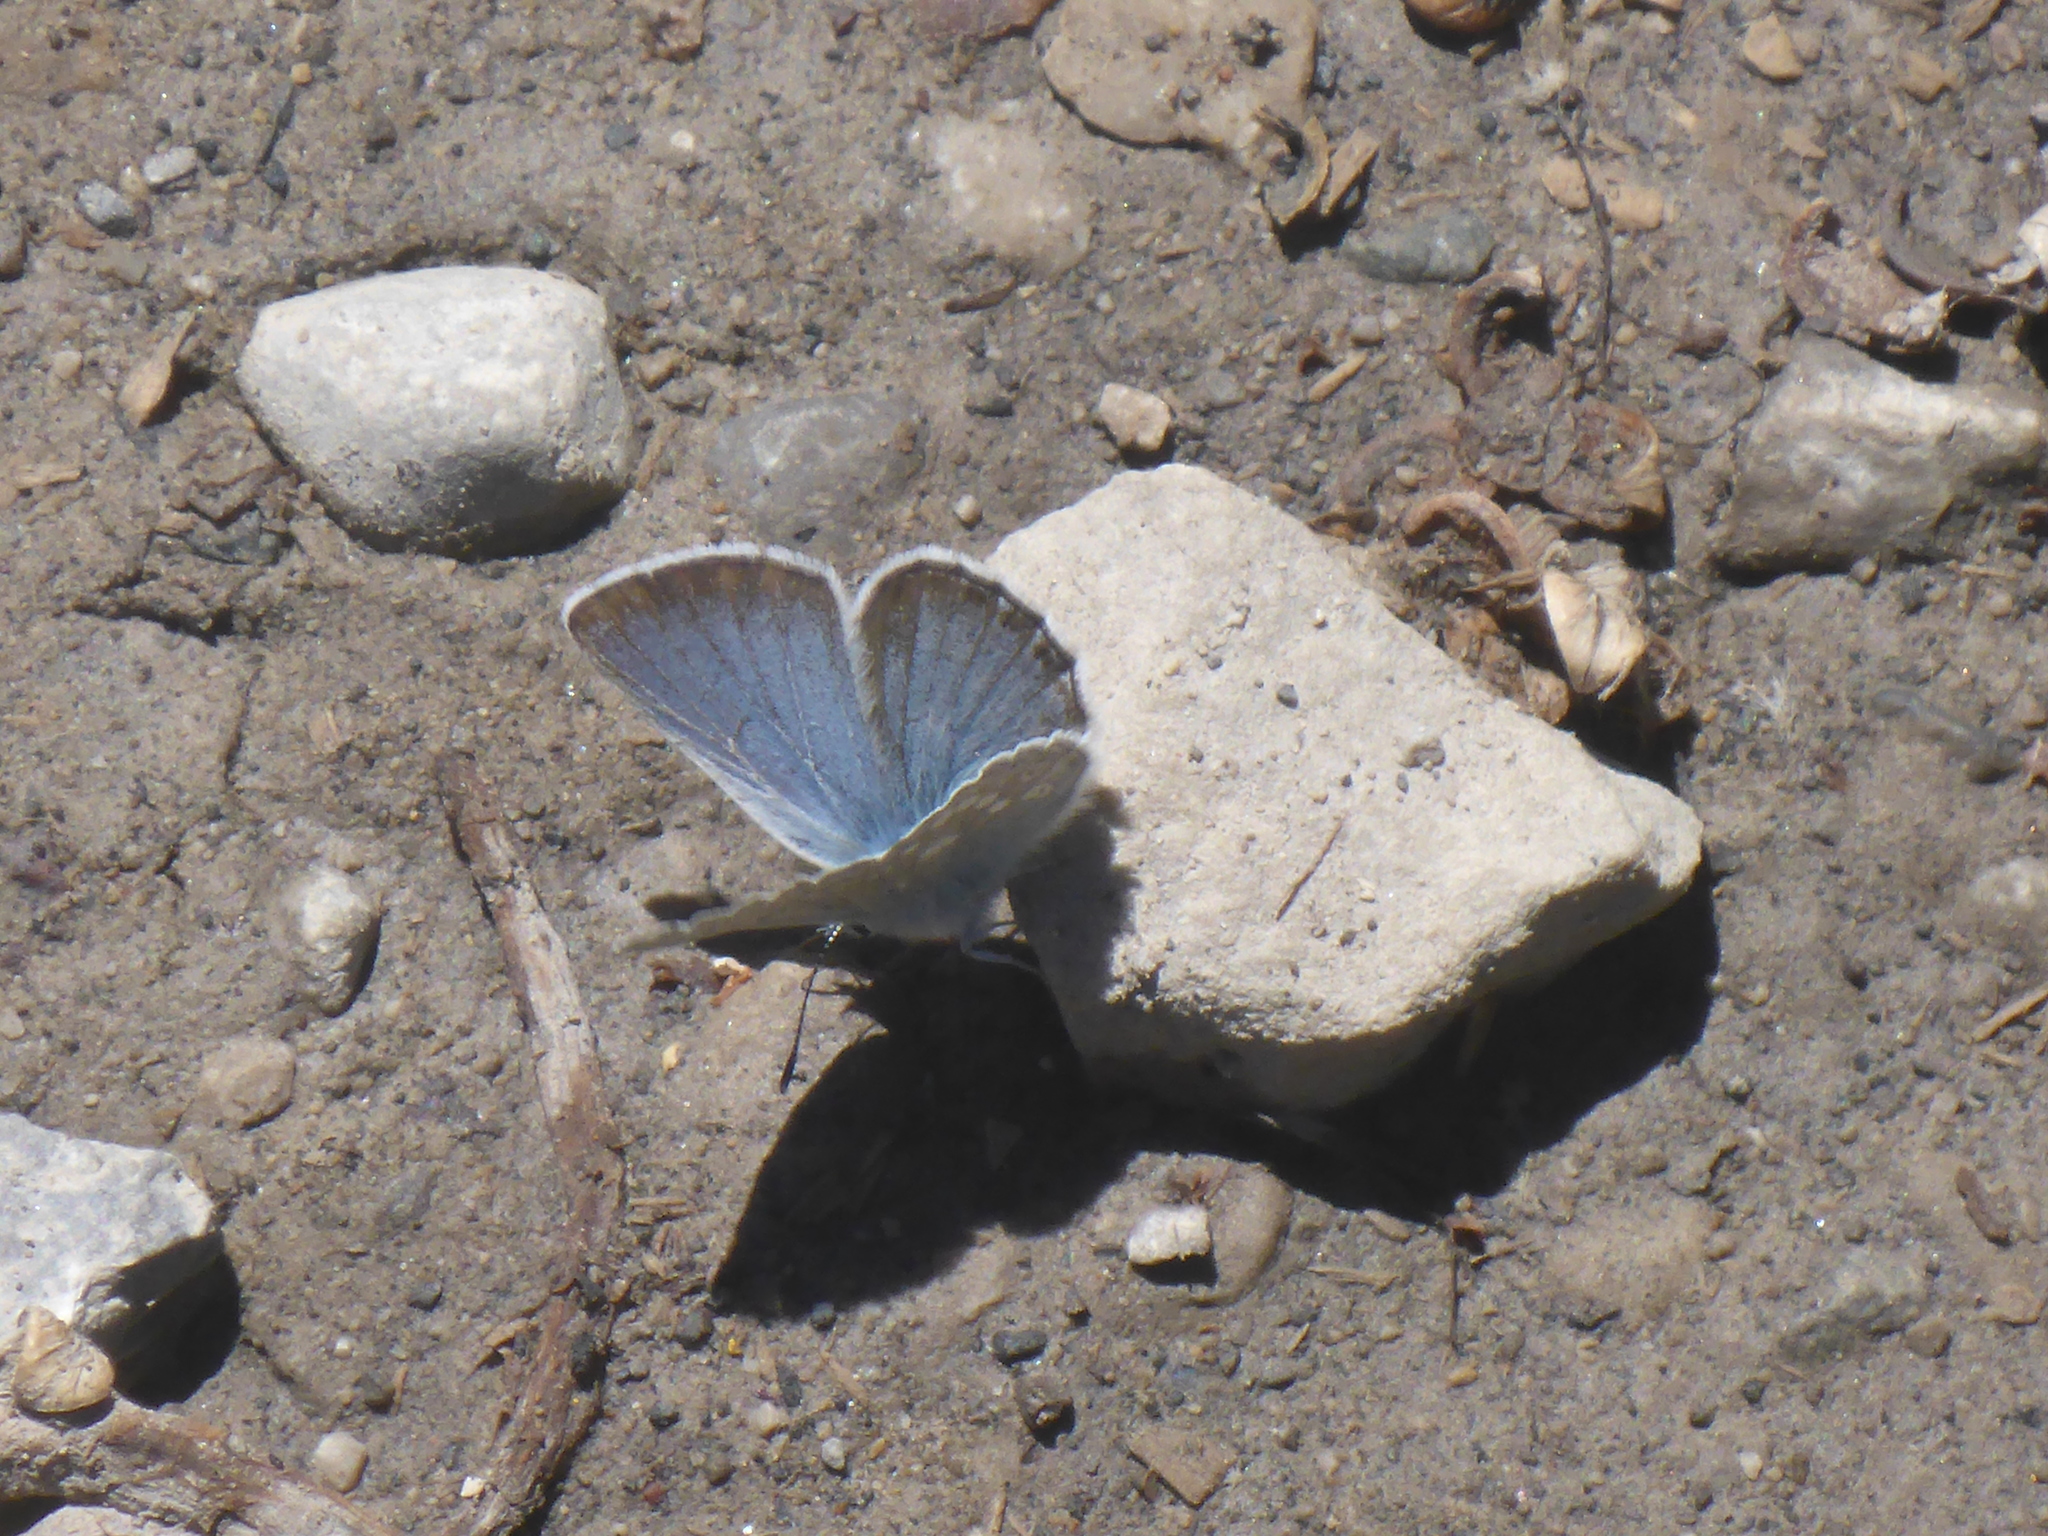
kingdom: Animalia
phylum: Arthropoda
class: Insecta
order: Lepidoptera
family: Lycaenidae
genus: Icaricia
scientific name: Icaricia icarioides
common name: Boisduval's blue
